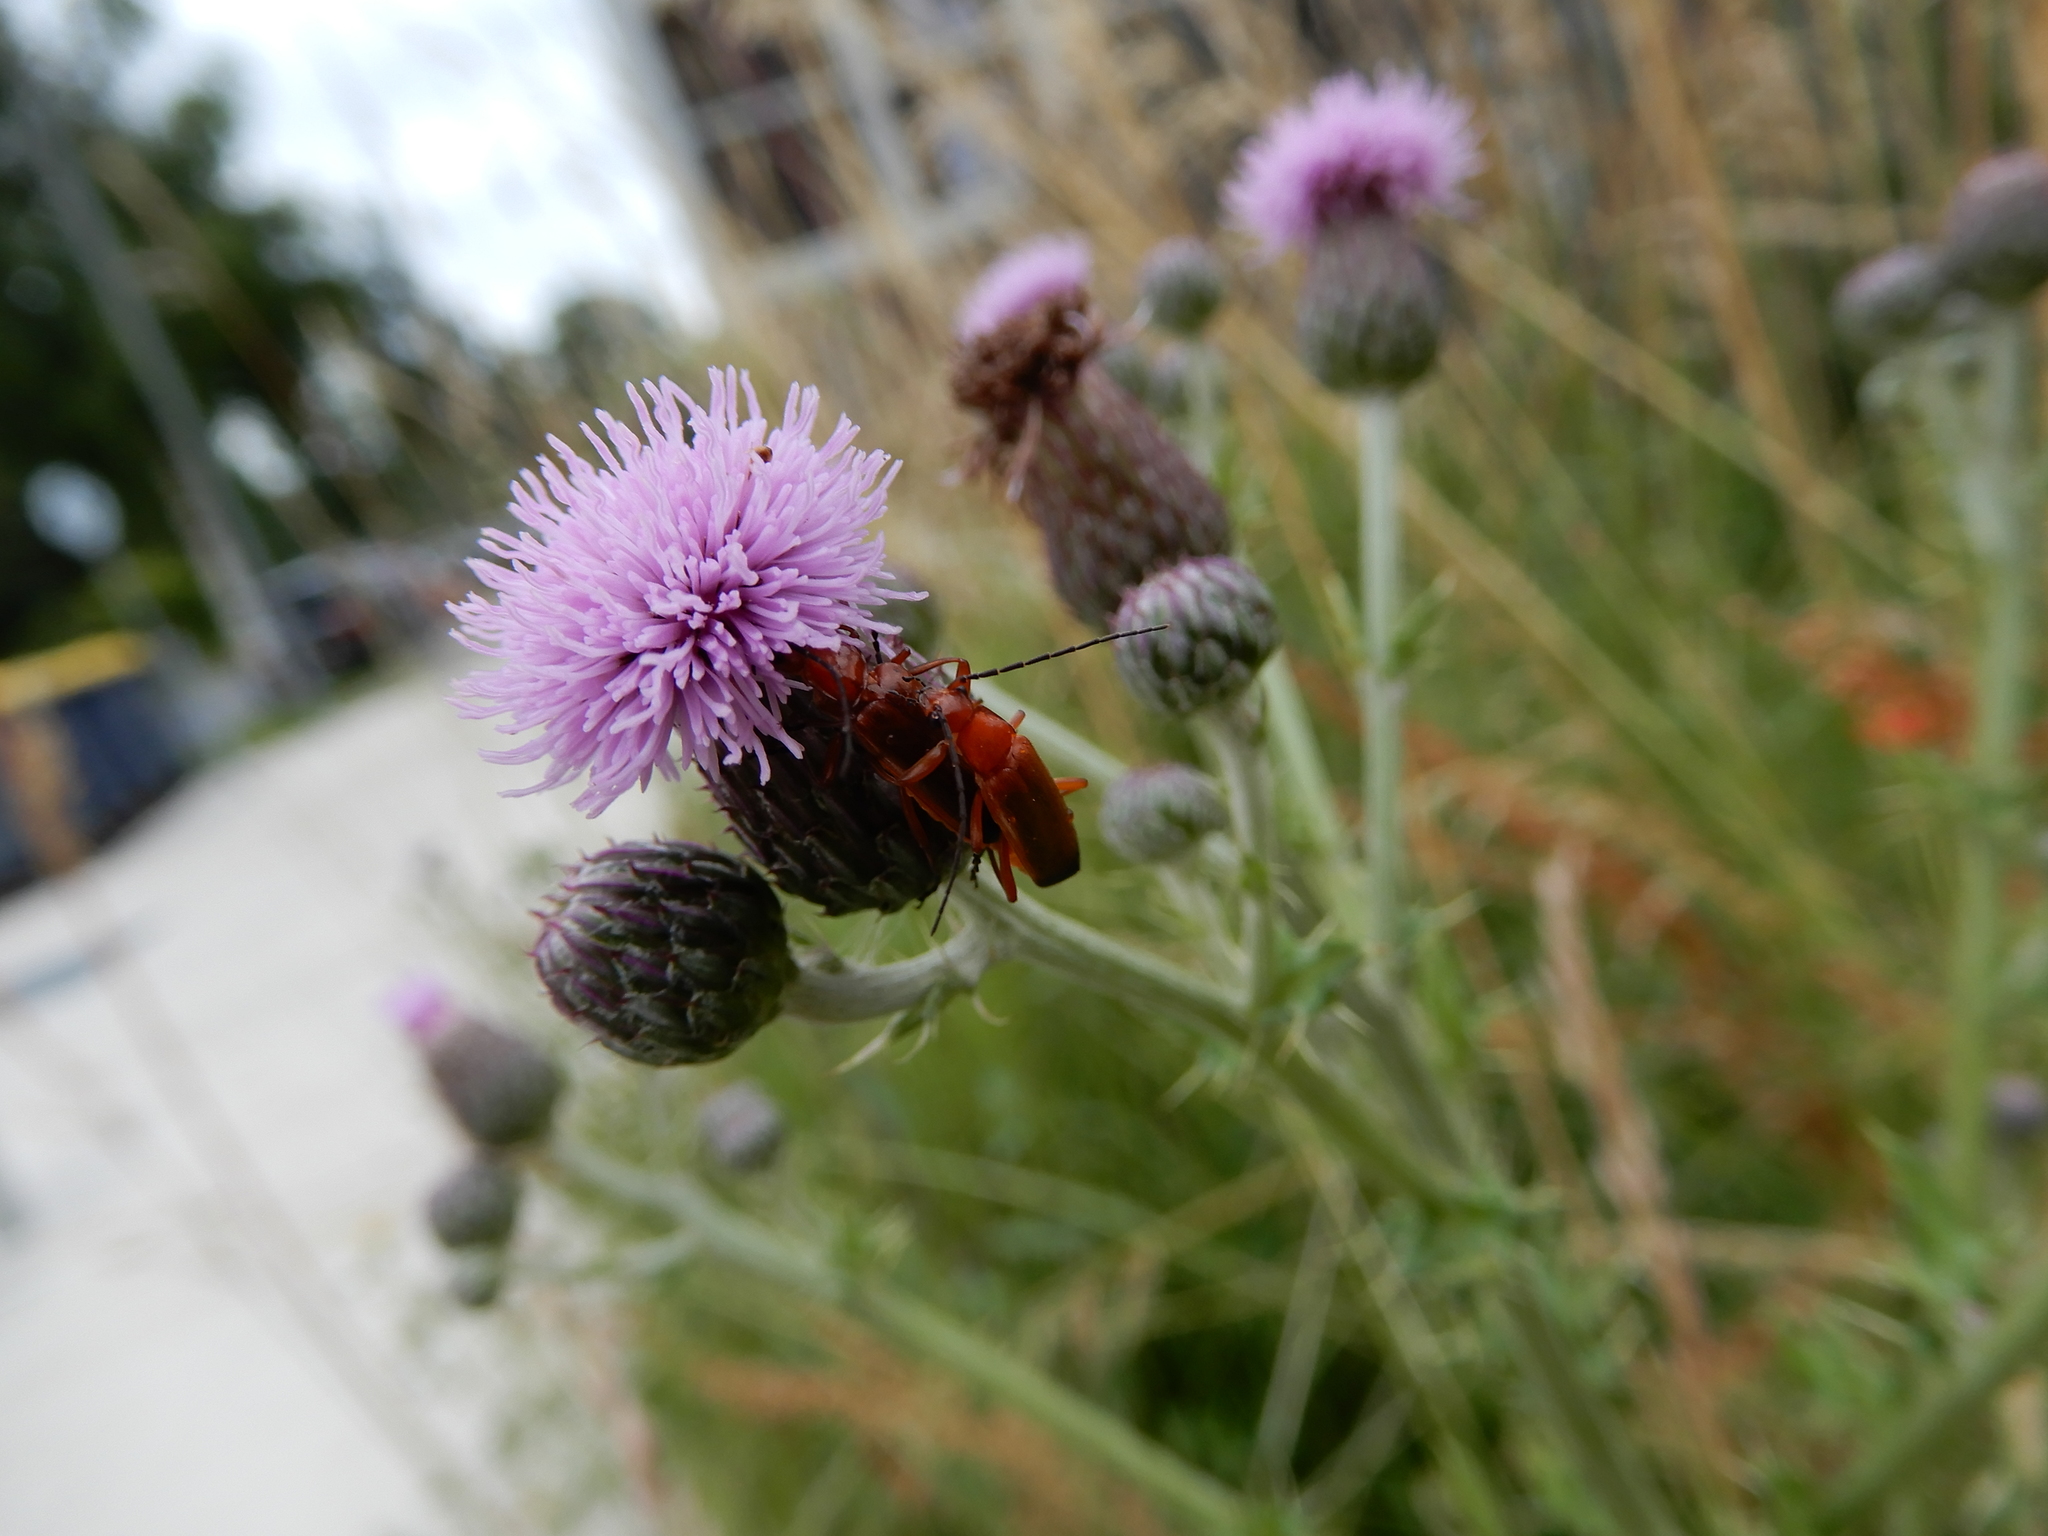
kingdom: Animalia
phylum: Arthropoda
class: Insecta
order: Coleoptera
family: Cantharidae
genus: Rhagonycha
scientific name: Rhagonycha fulva
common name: Common red soldier beetle
